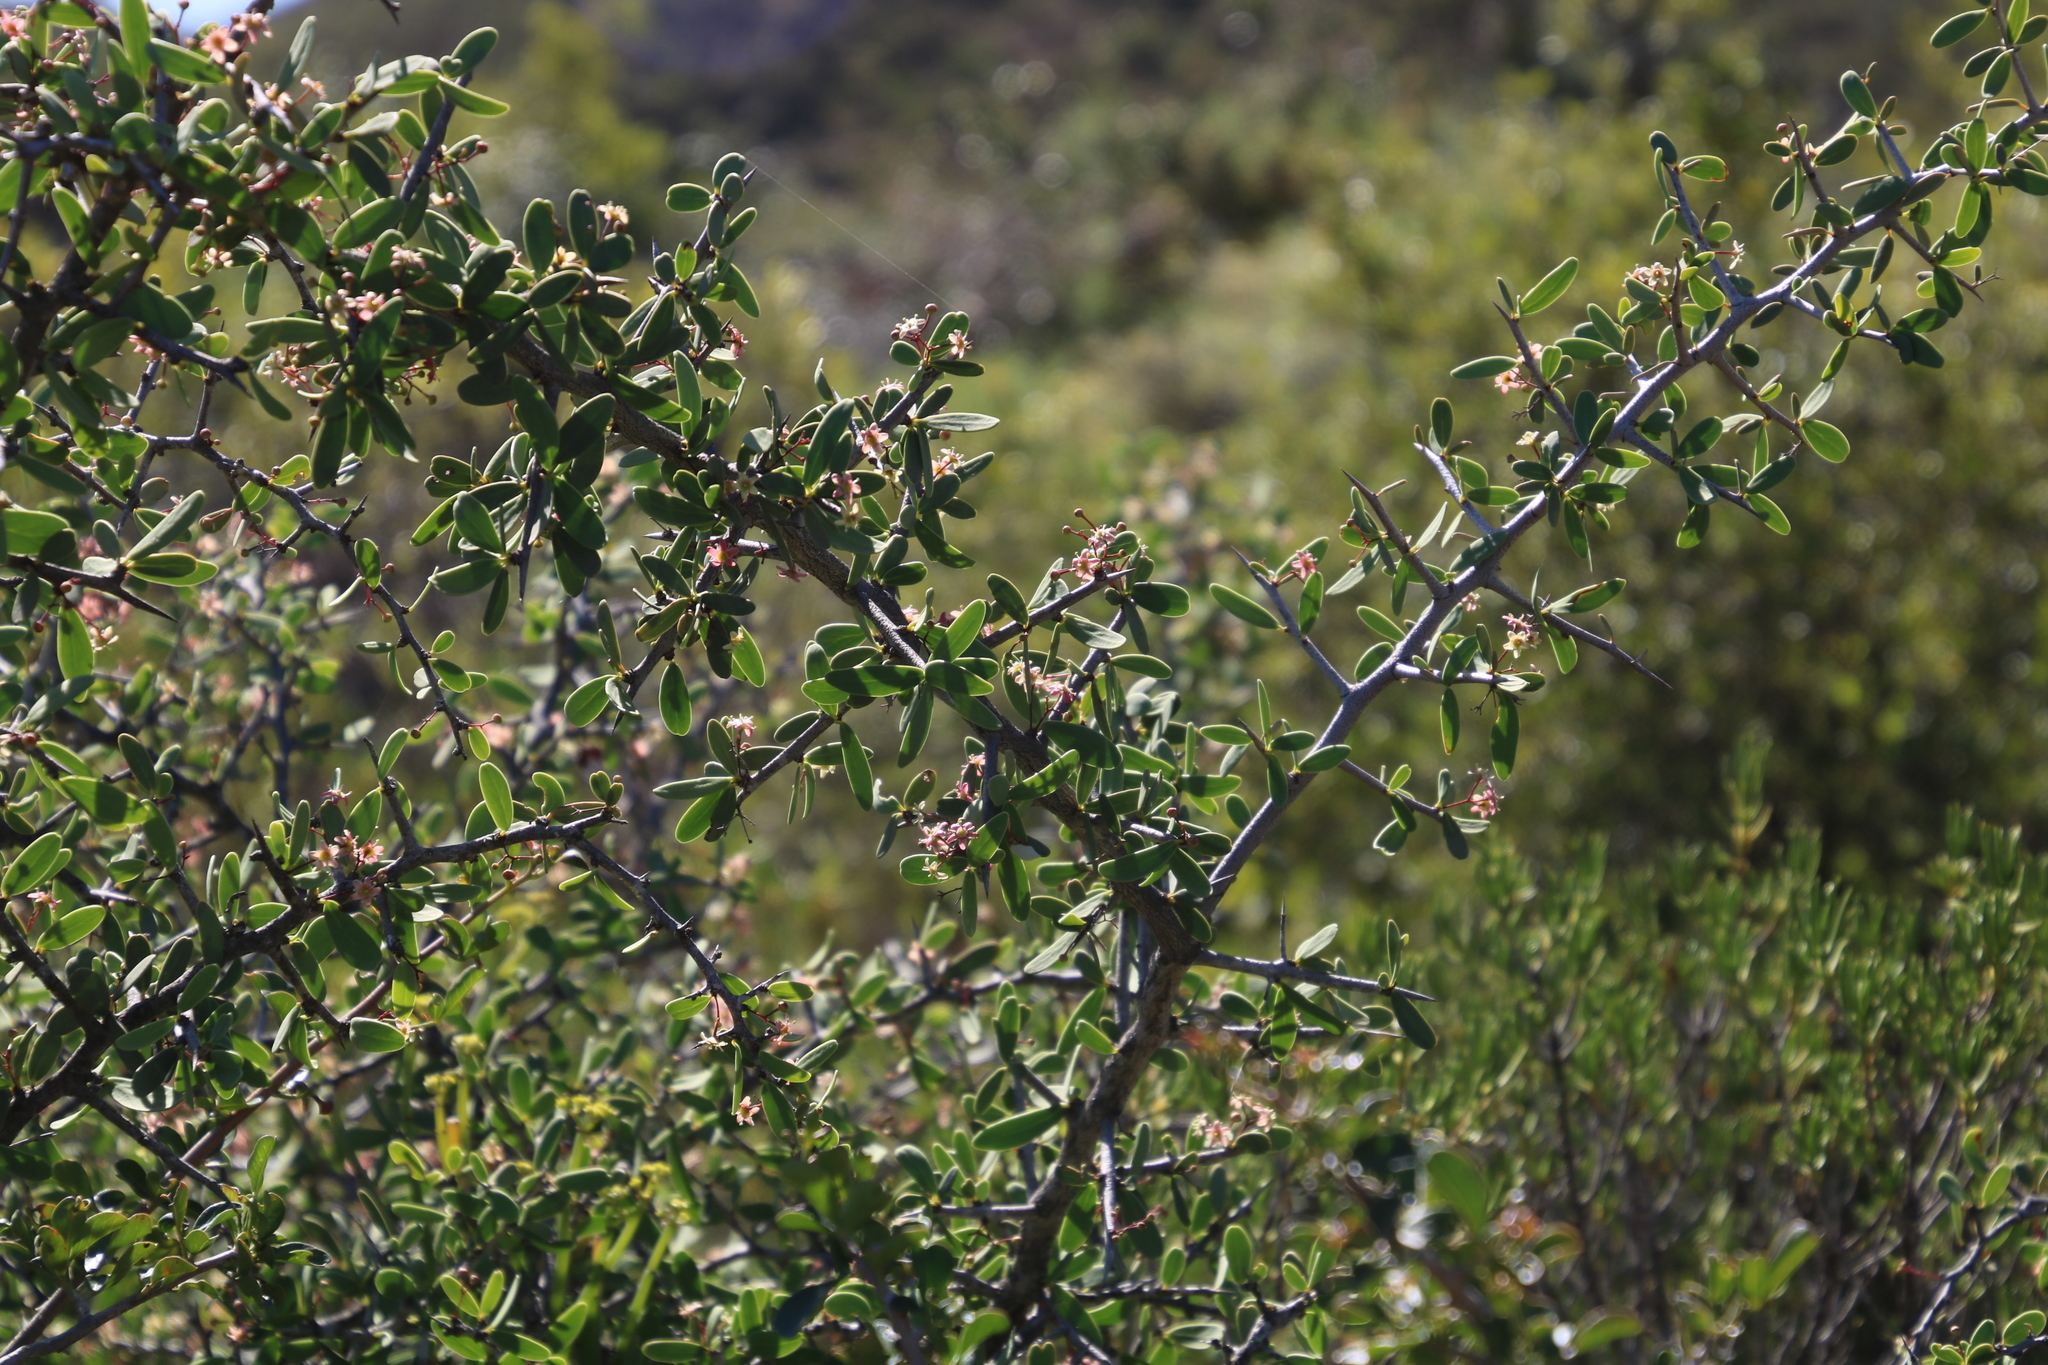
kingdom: Plantae
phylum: Tracheophyta
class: Magnoliopsida
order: Celastrales
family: Celastraceae
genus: Gloveria
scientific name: Gloveria integrifolia
